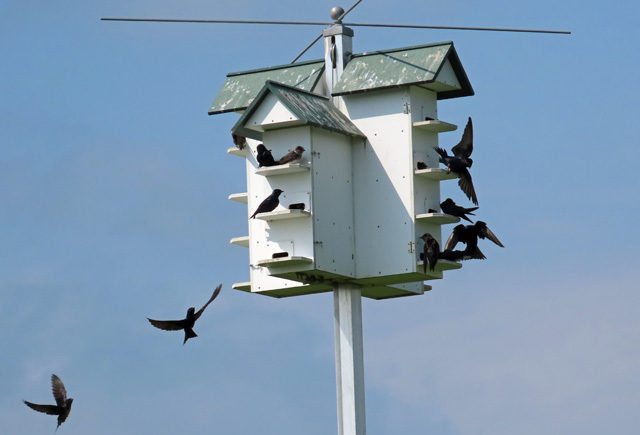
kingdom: Animalia
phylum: Chordata
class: Aves
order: Passeriformes
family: Hirundinidae
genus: Progne
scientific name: Progne subis
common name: Purple martin
